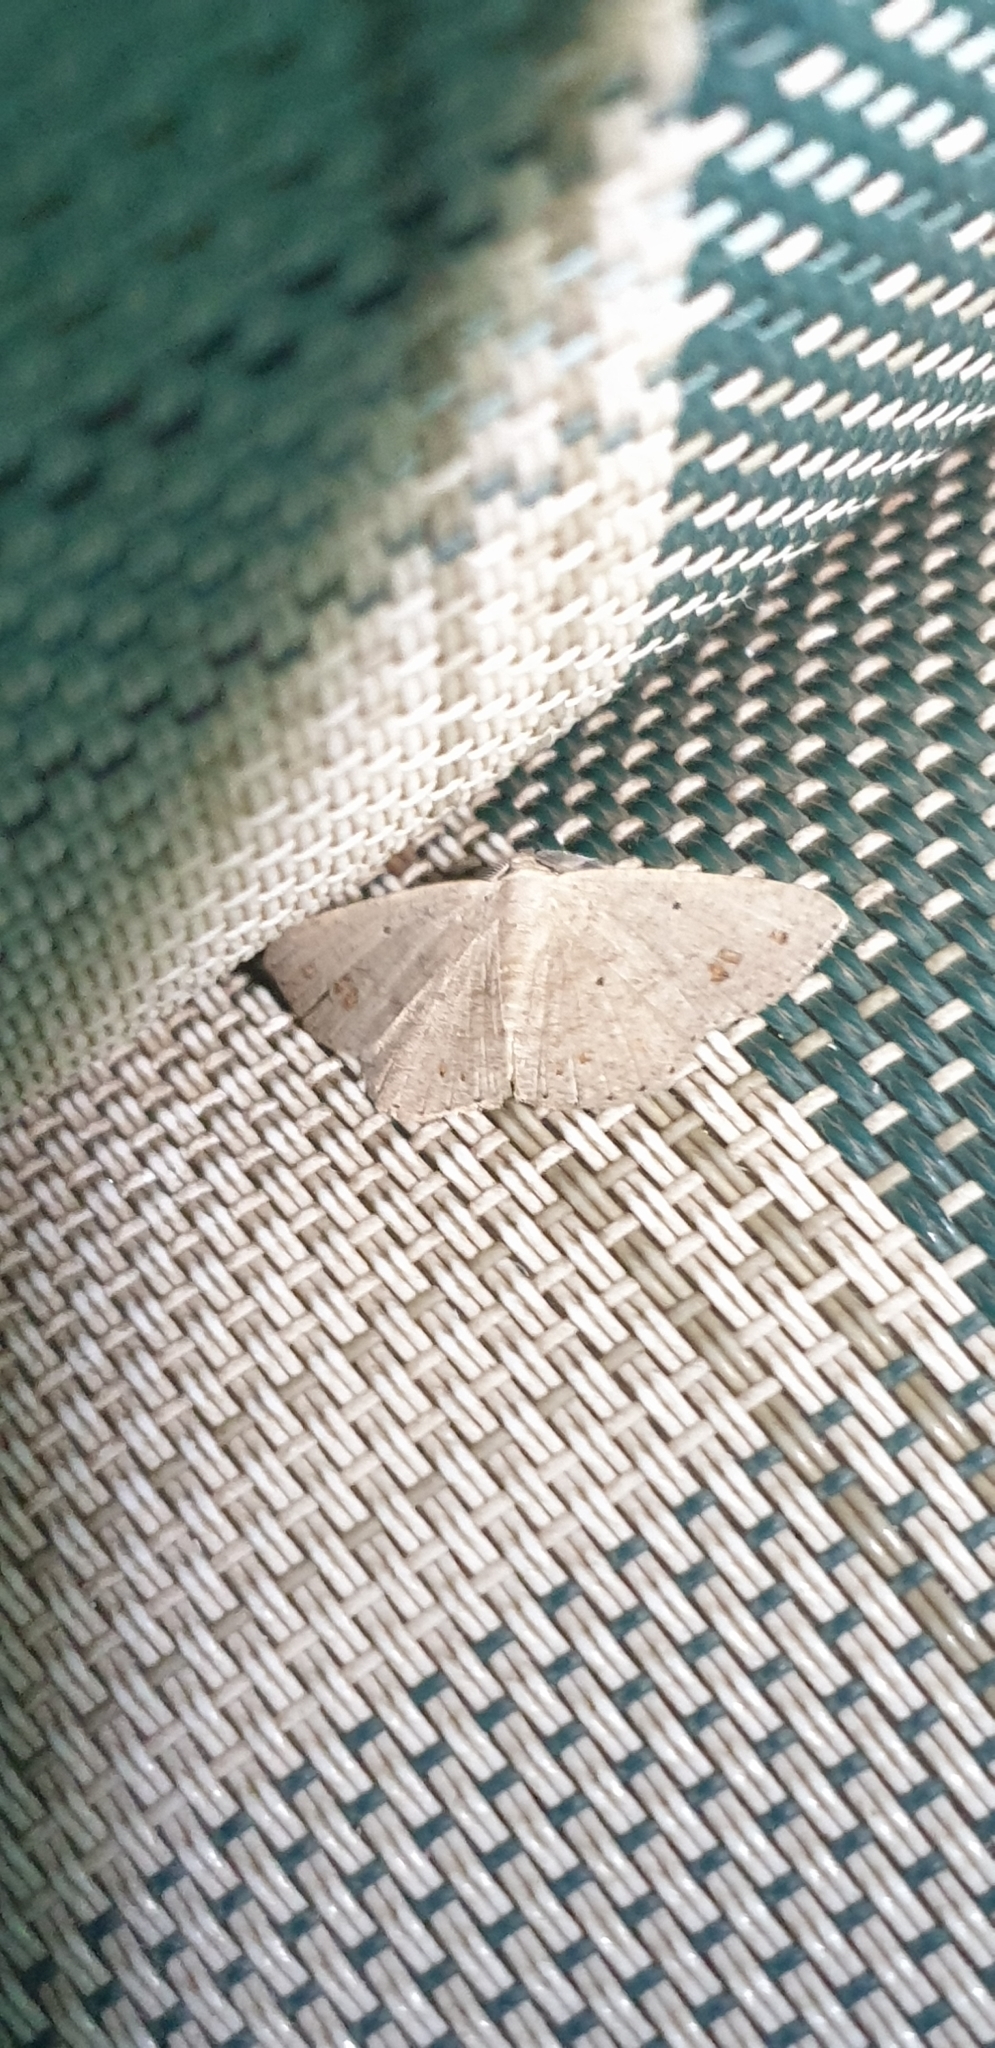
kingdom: Animalia
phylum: Arthropoda
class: Insecta
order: Lepidoptera
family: Geometridae
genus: Casbia
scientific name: Casbia rectaria
